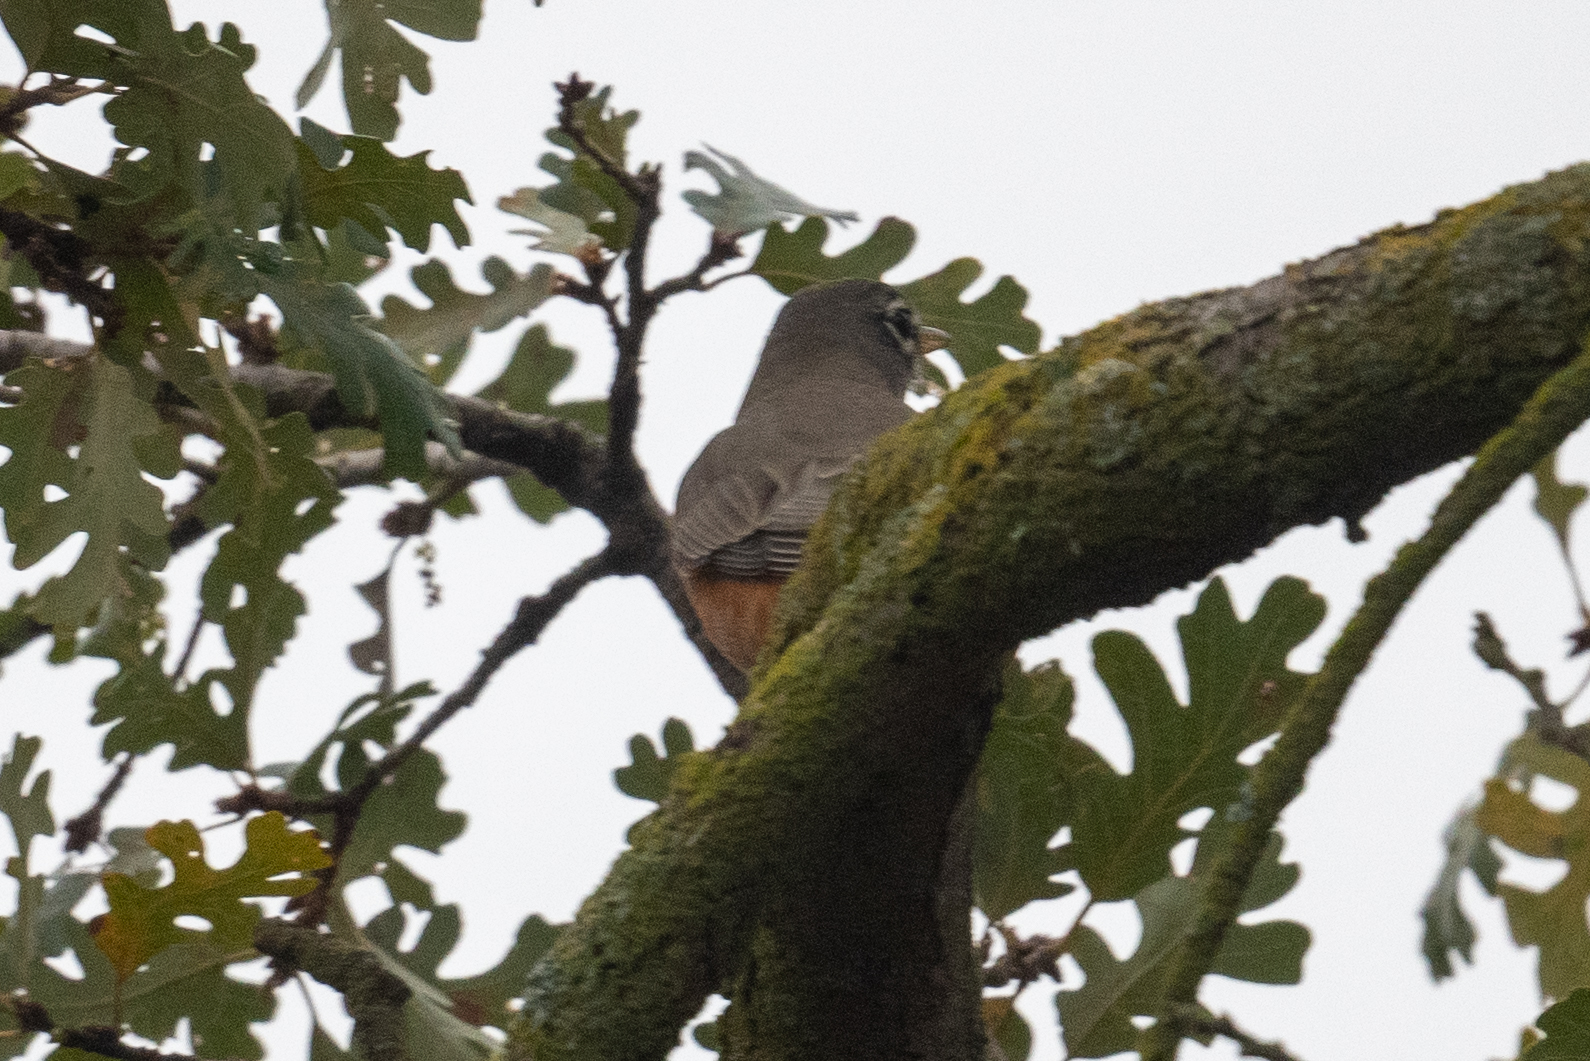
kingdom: Animalia
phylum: Chordata
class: Aves
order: Passeriformes
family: Turdidae
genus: Turdus
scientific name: Turdus migratorius
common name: American robin
